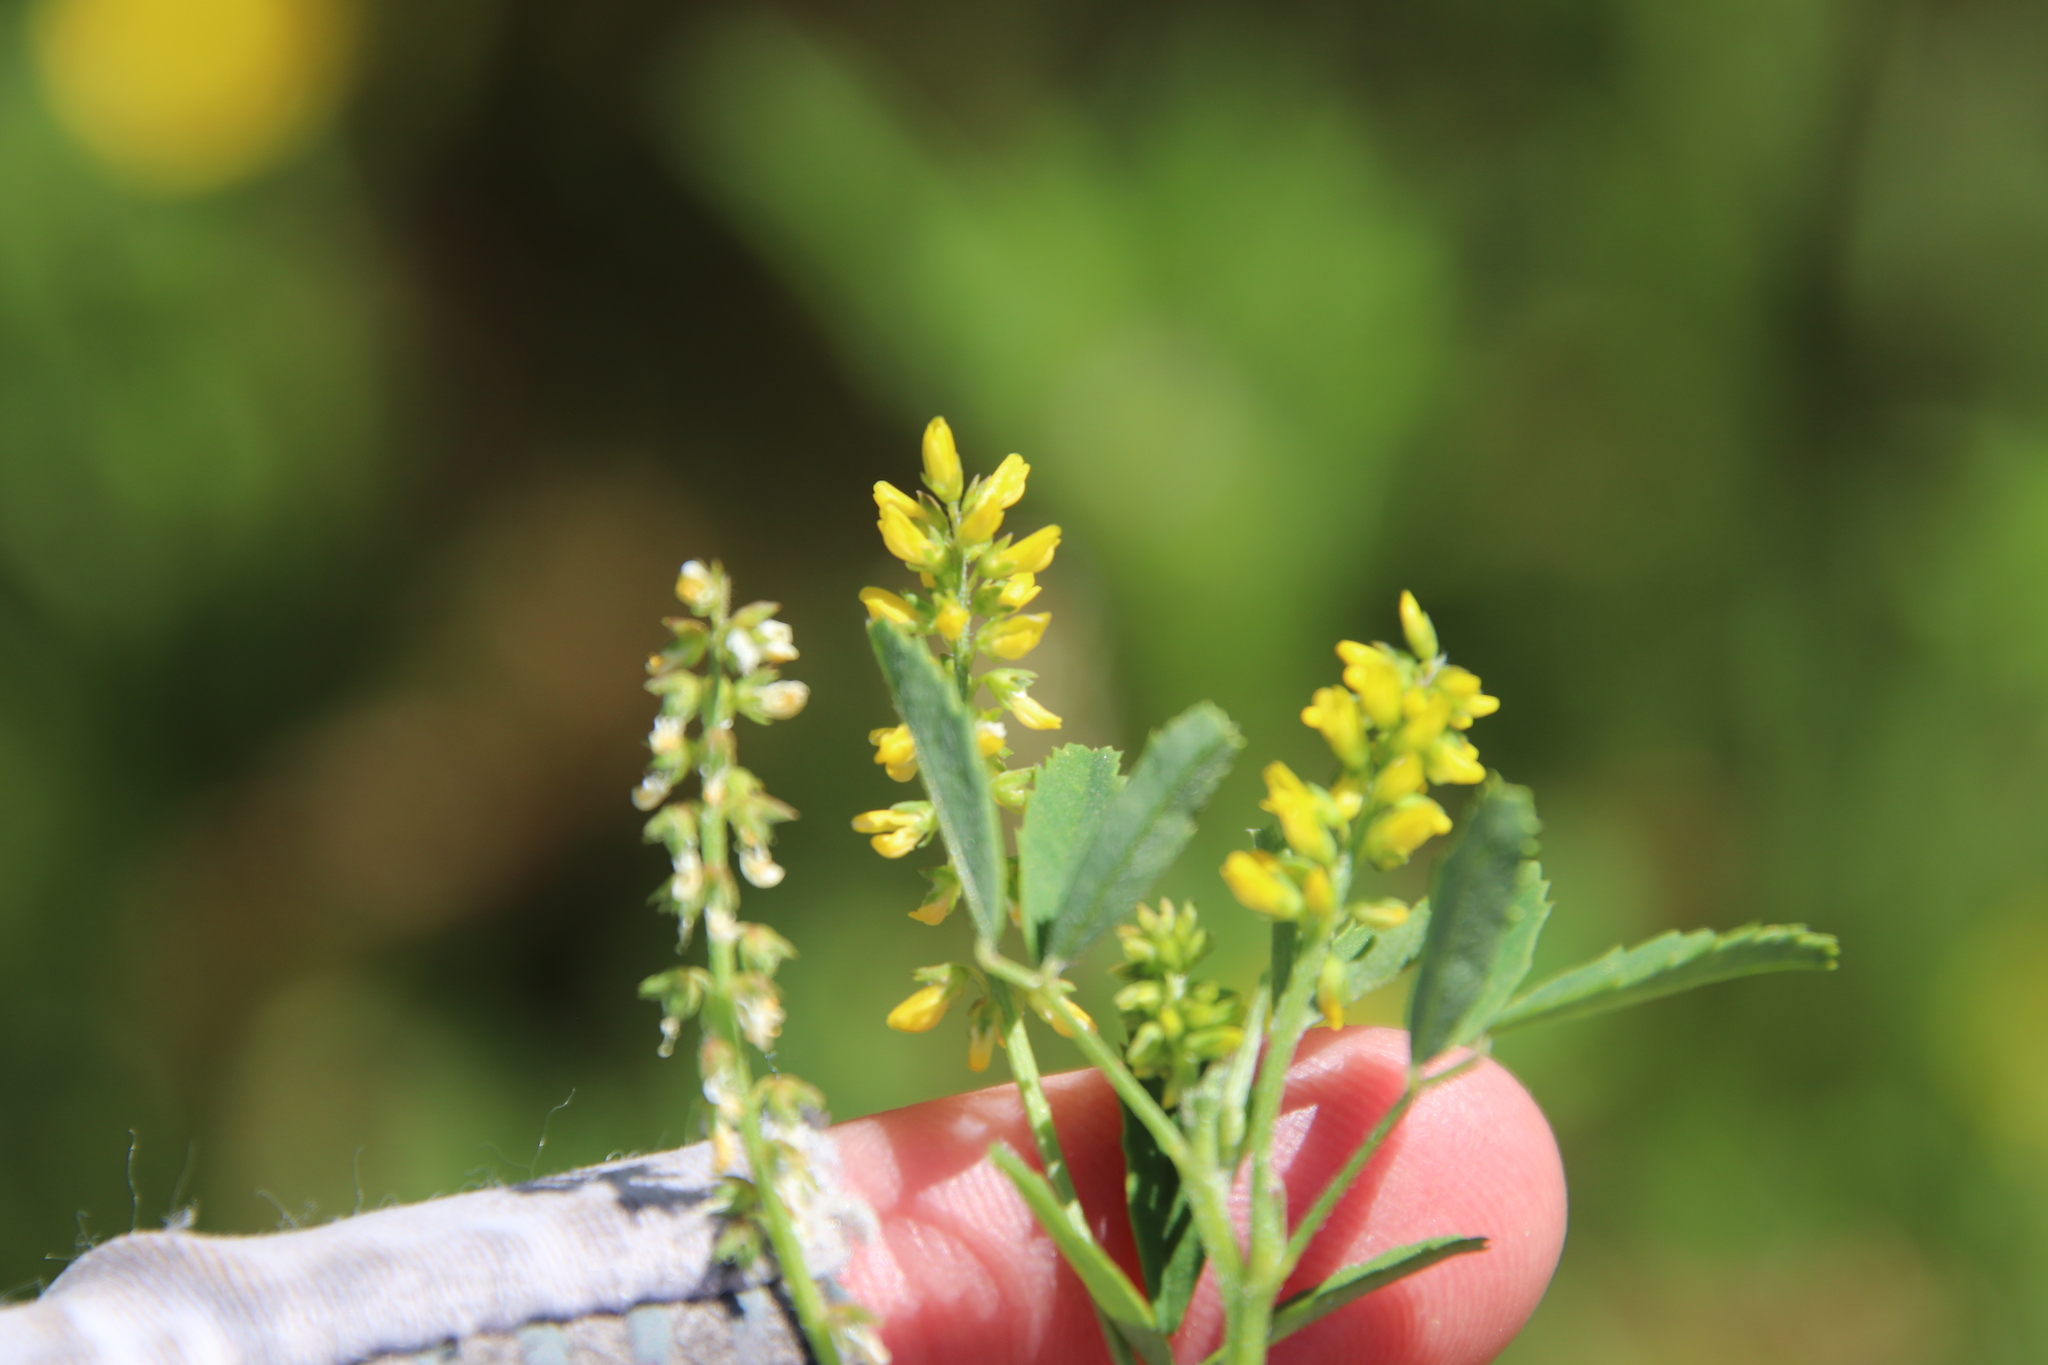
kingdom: Plantae
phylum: Tracheophyta
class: Magnoliopsida
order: Fabales
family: Fabaceae
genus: Melilotus
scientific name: Melilotus indicus
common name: Small melilot
